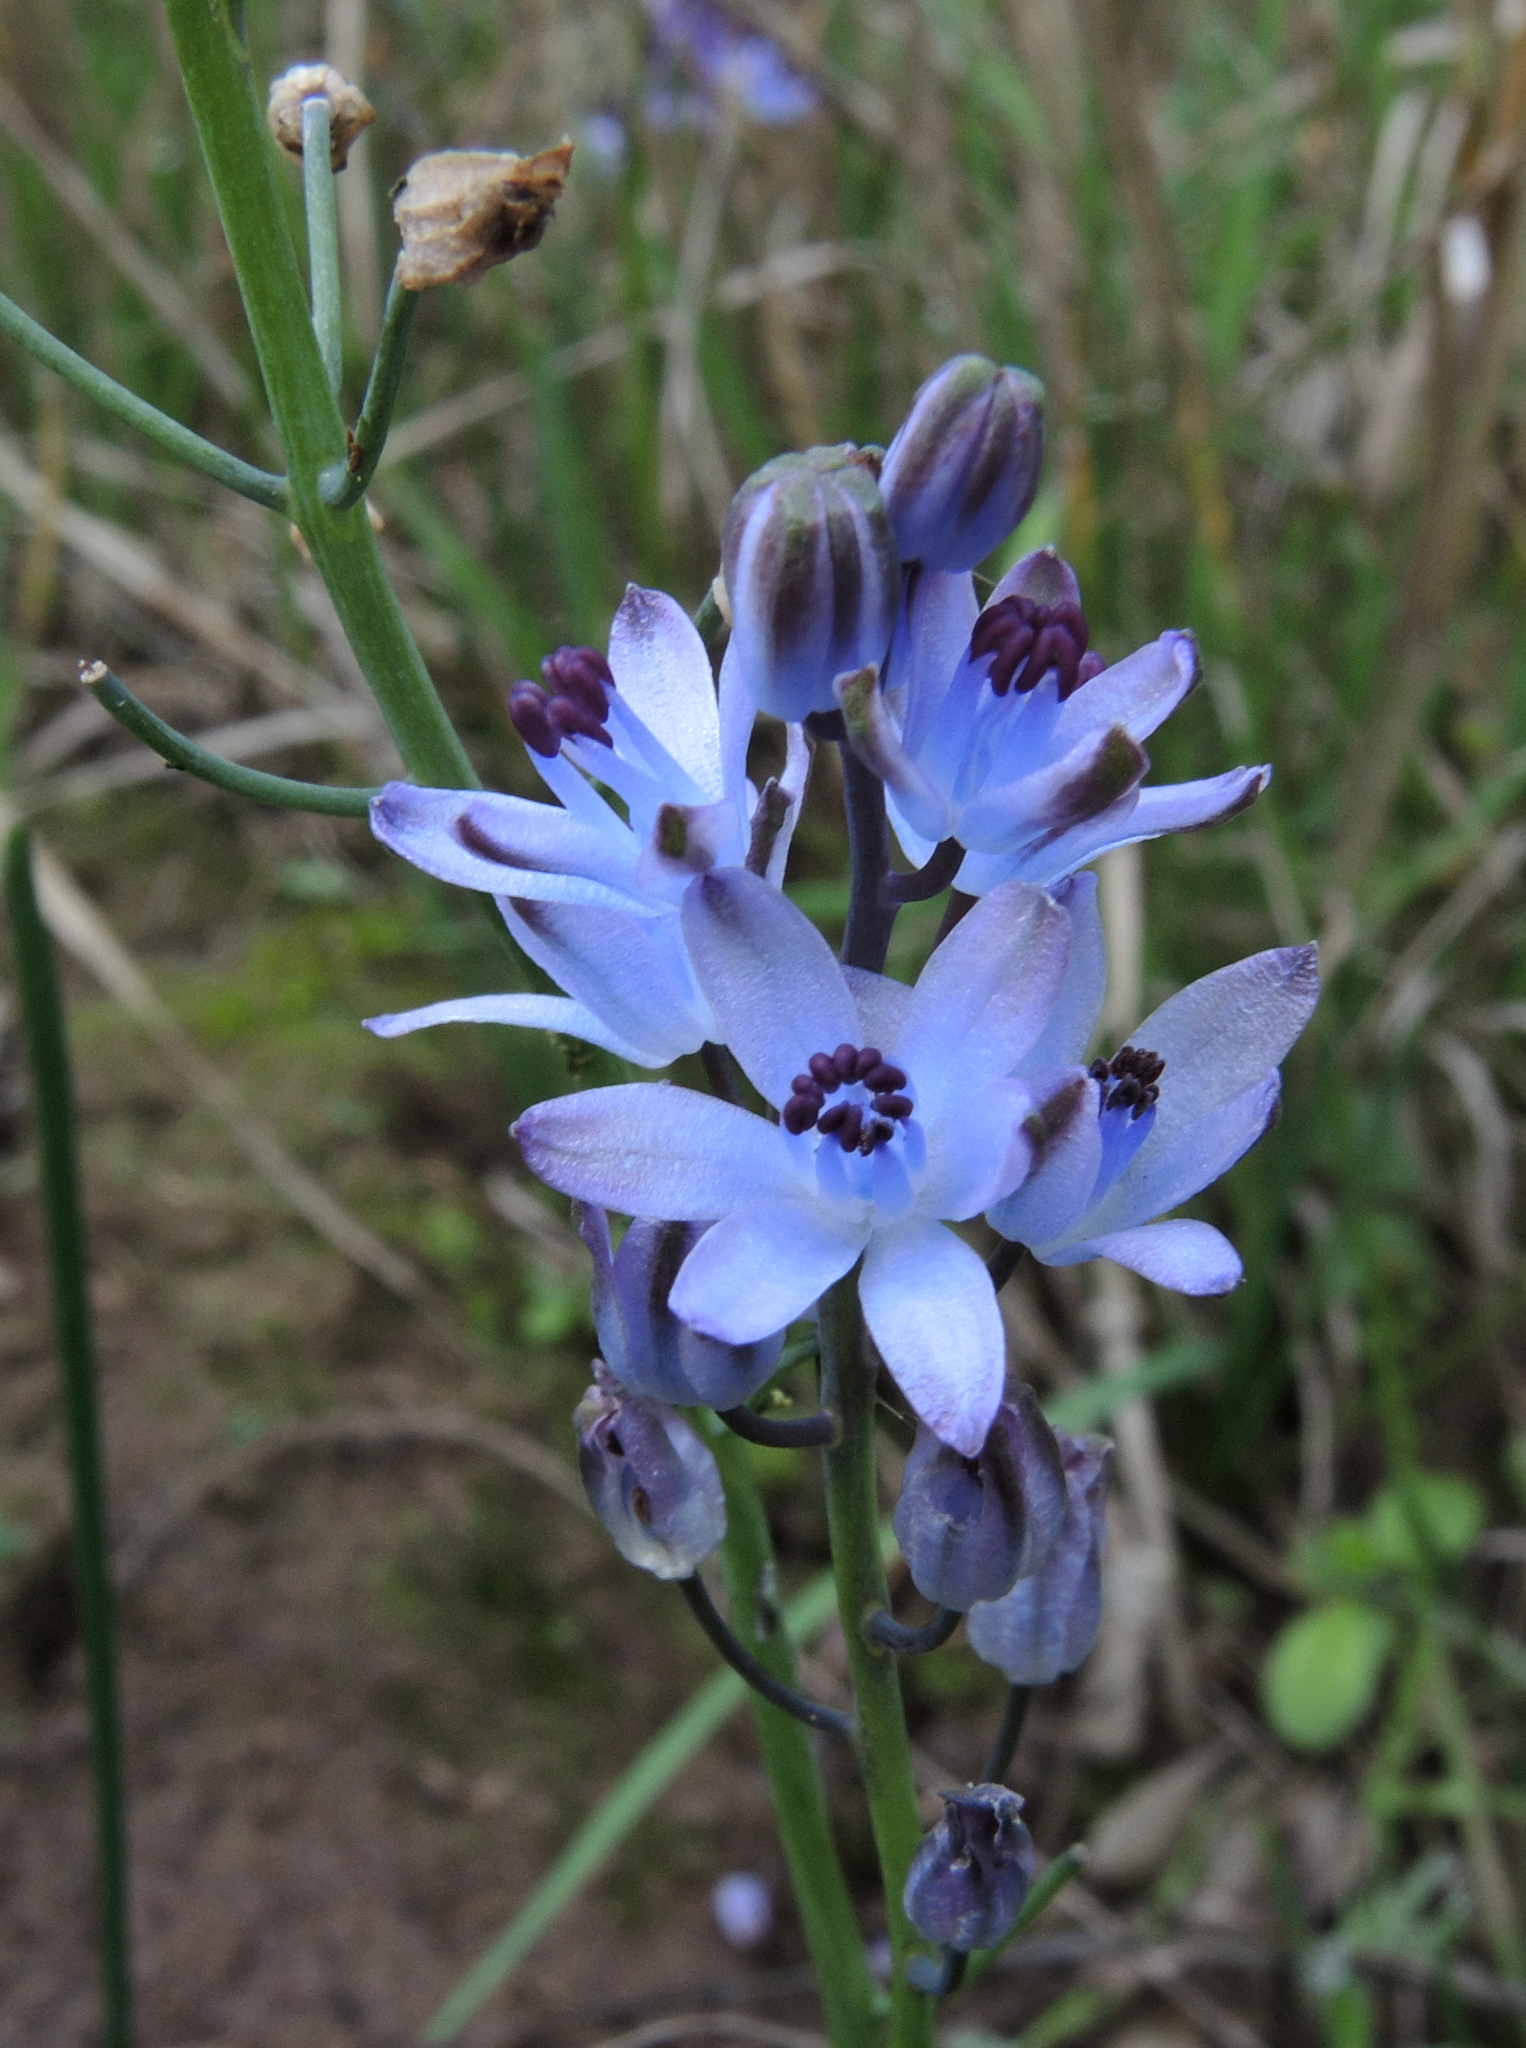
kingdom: Plantae
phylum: Tracheophyta
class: Liliopsida
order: Asparagales
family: Asparagaceae
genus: Prospero
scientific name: Prospero autumnale
